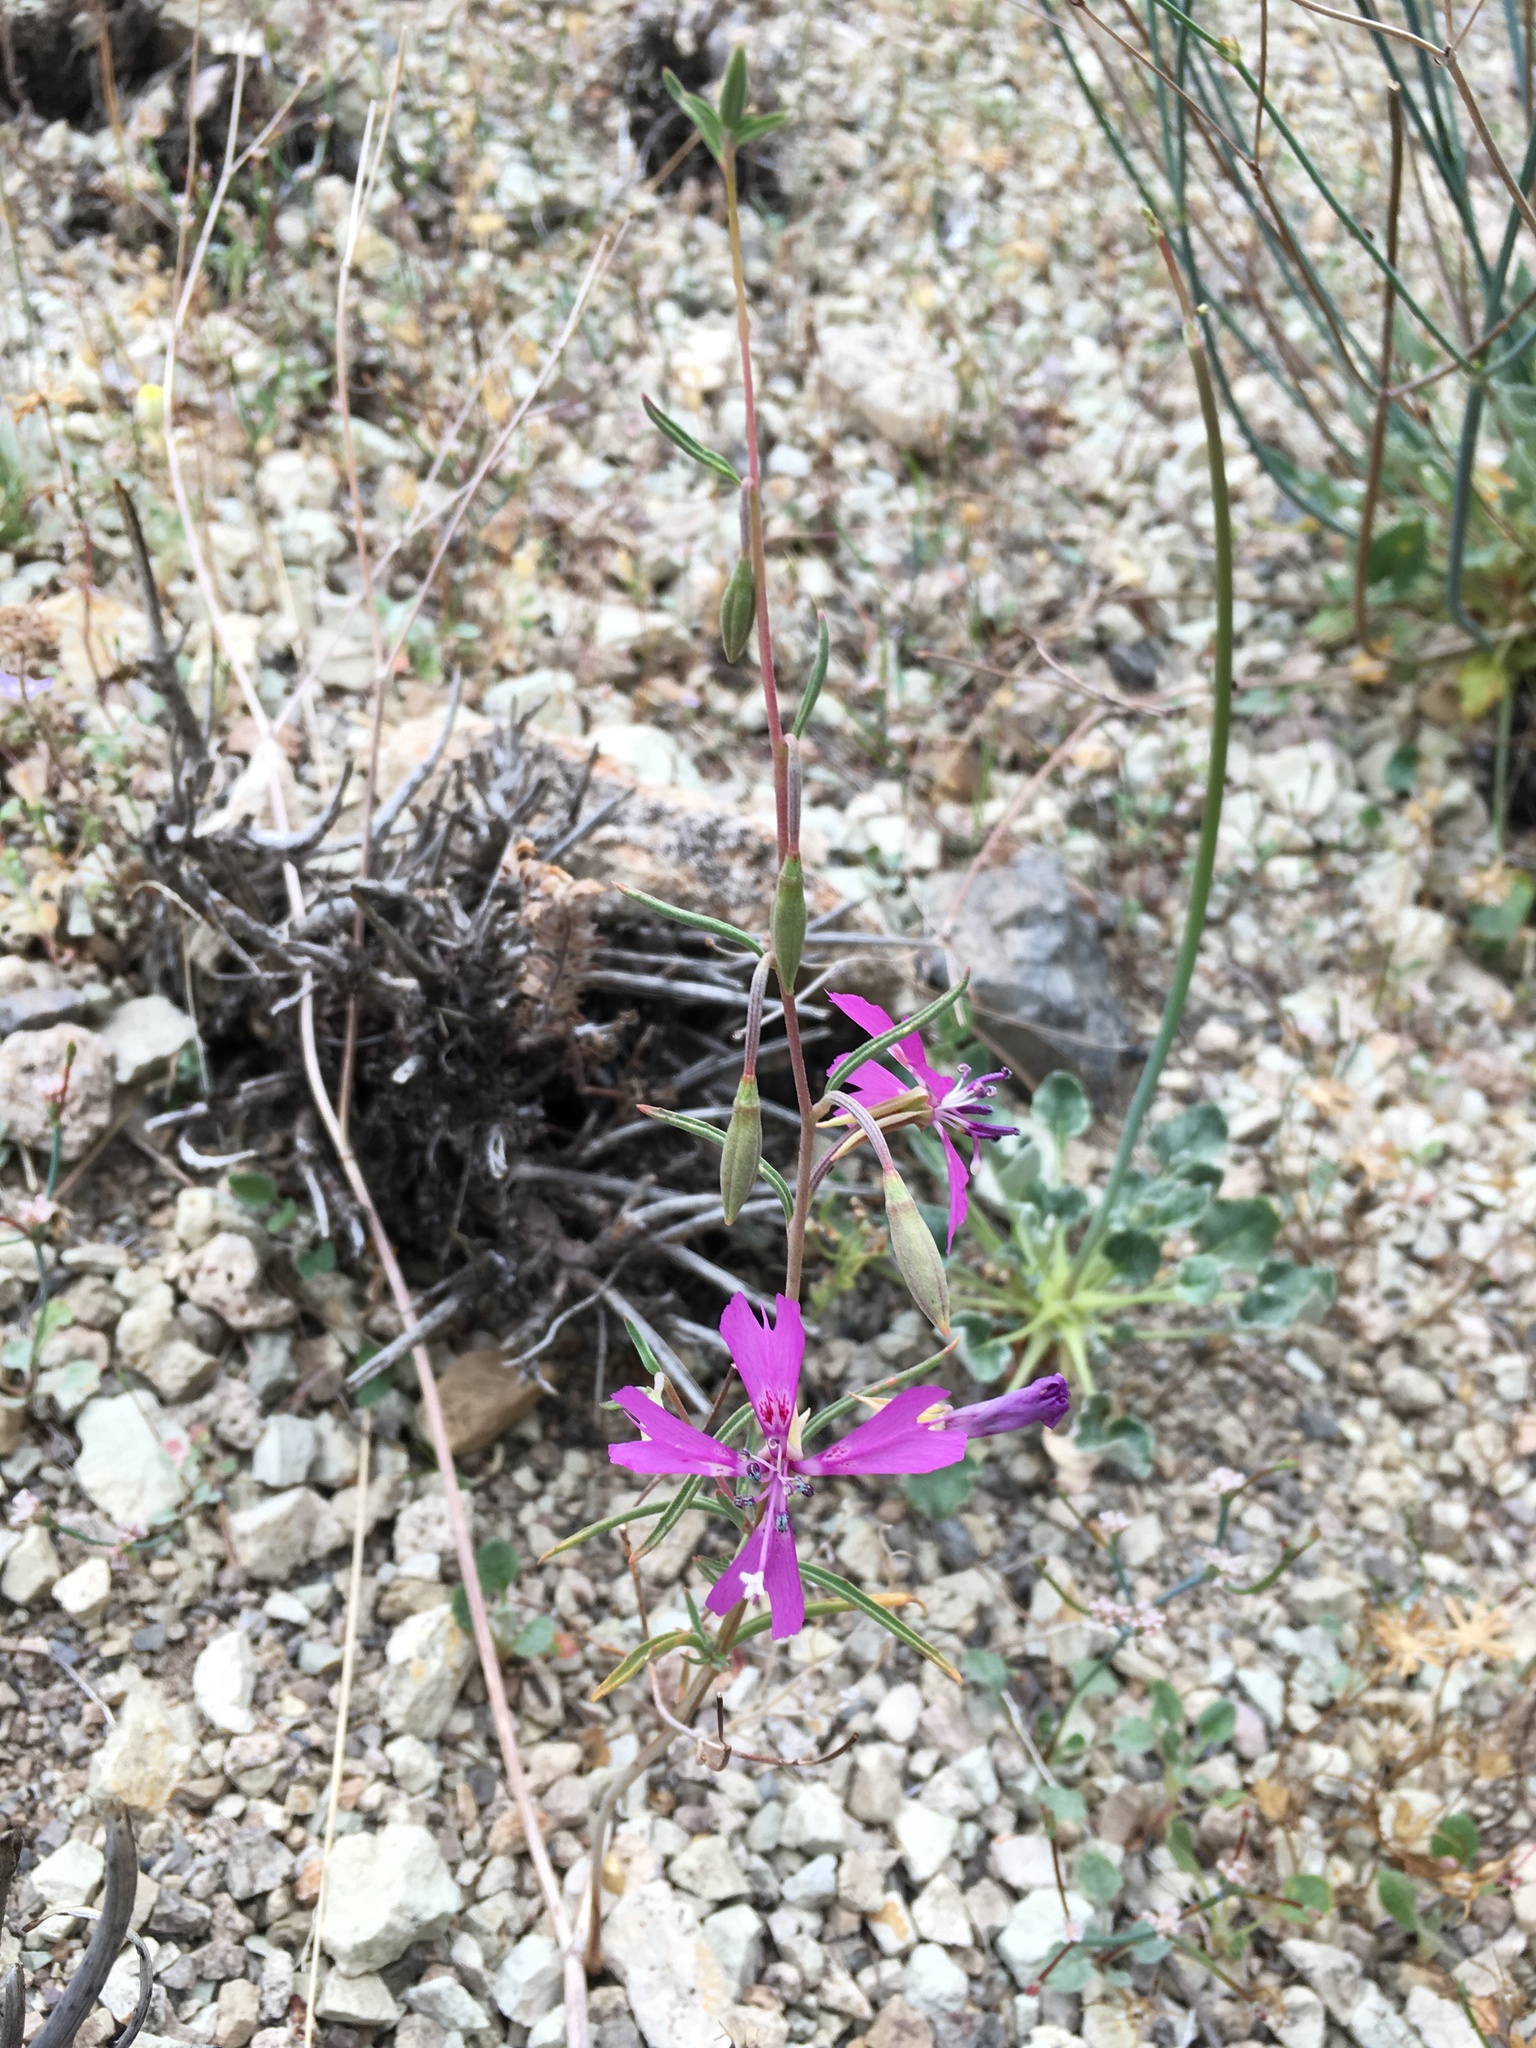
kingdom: Plantae
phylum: Tracheophyta
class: Magnoliopsida
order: Myrtales
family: Onagraceae
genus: Clarkia
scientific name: Clarkia xantiana
